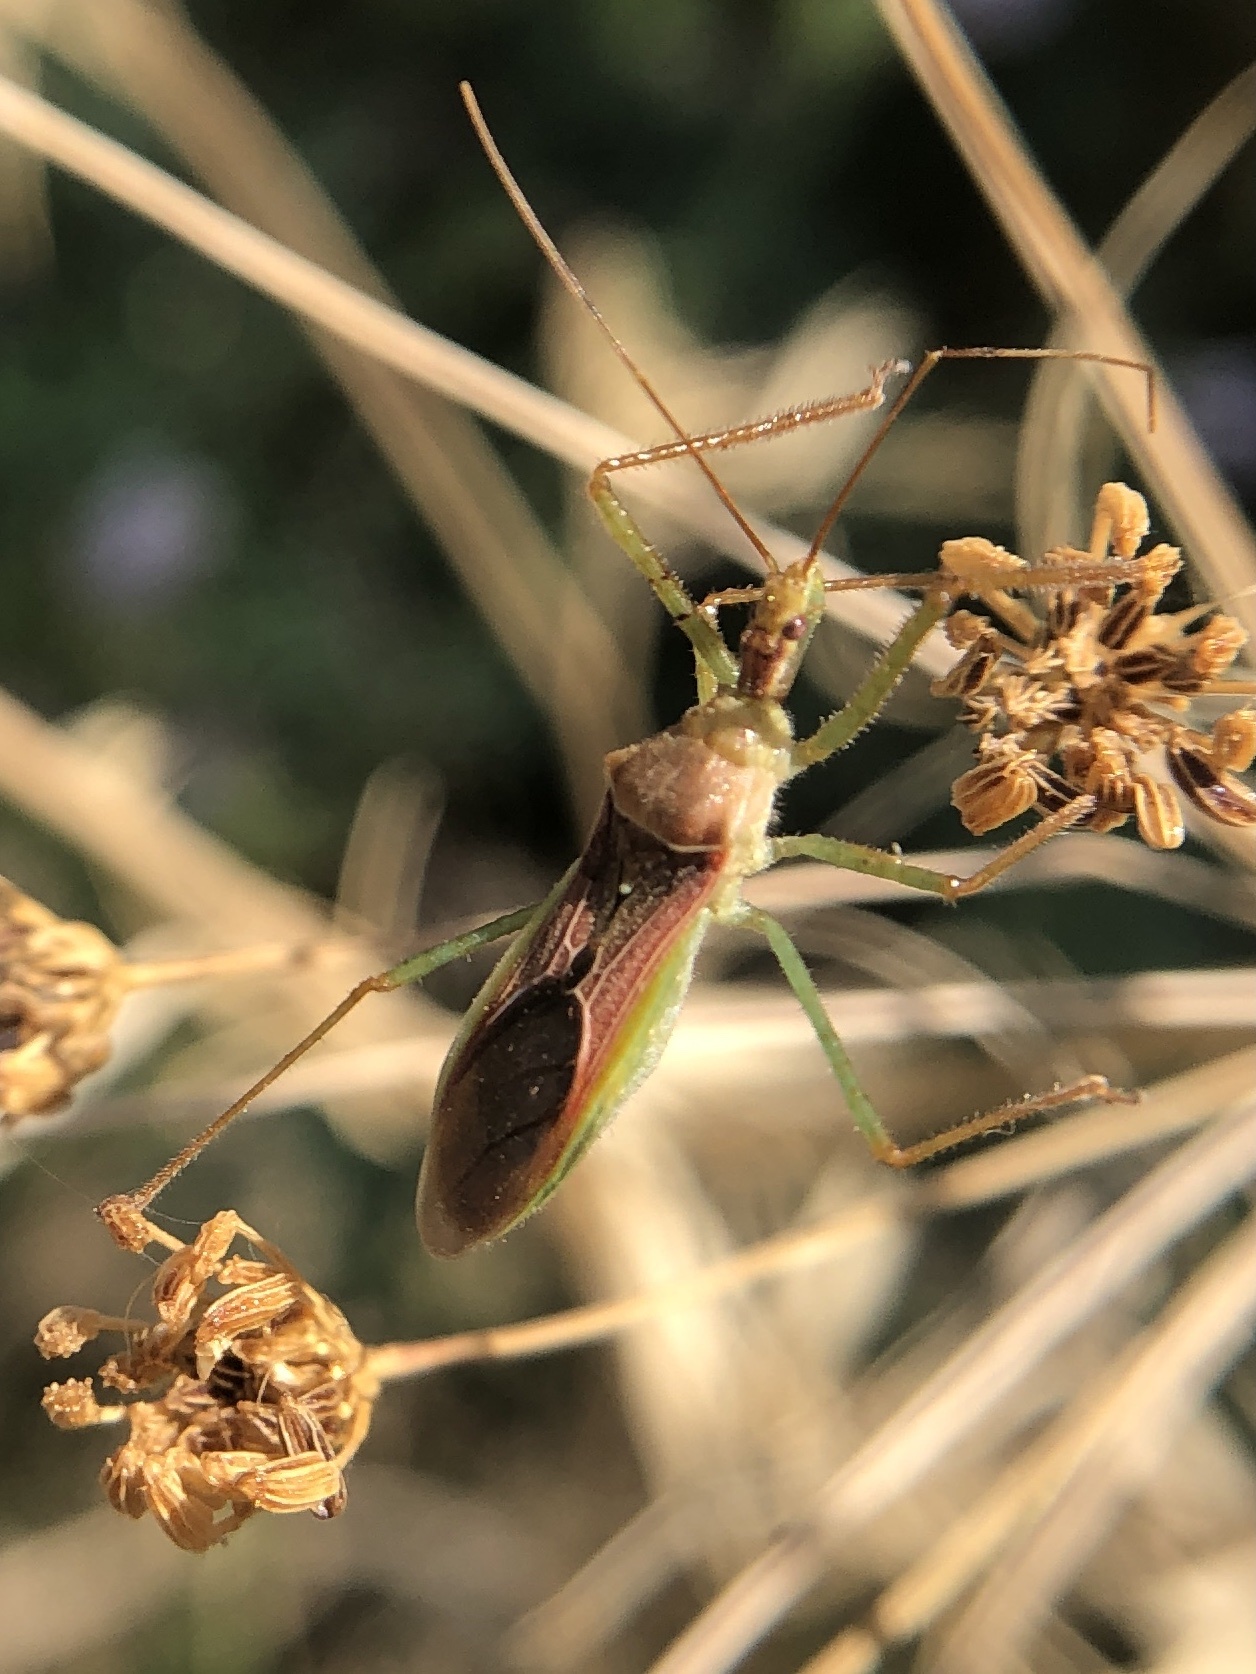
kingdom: Animalia
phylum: Arthropoda
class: Insecta
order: Hemiptera
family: Reduviidae
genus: Zelus
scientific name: Zelus renardii
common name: Assassin bug
